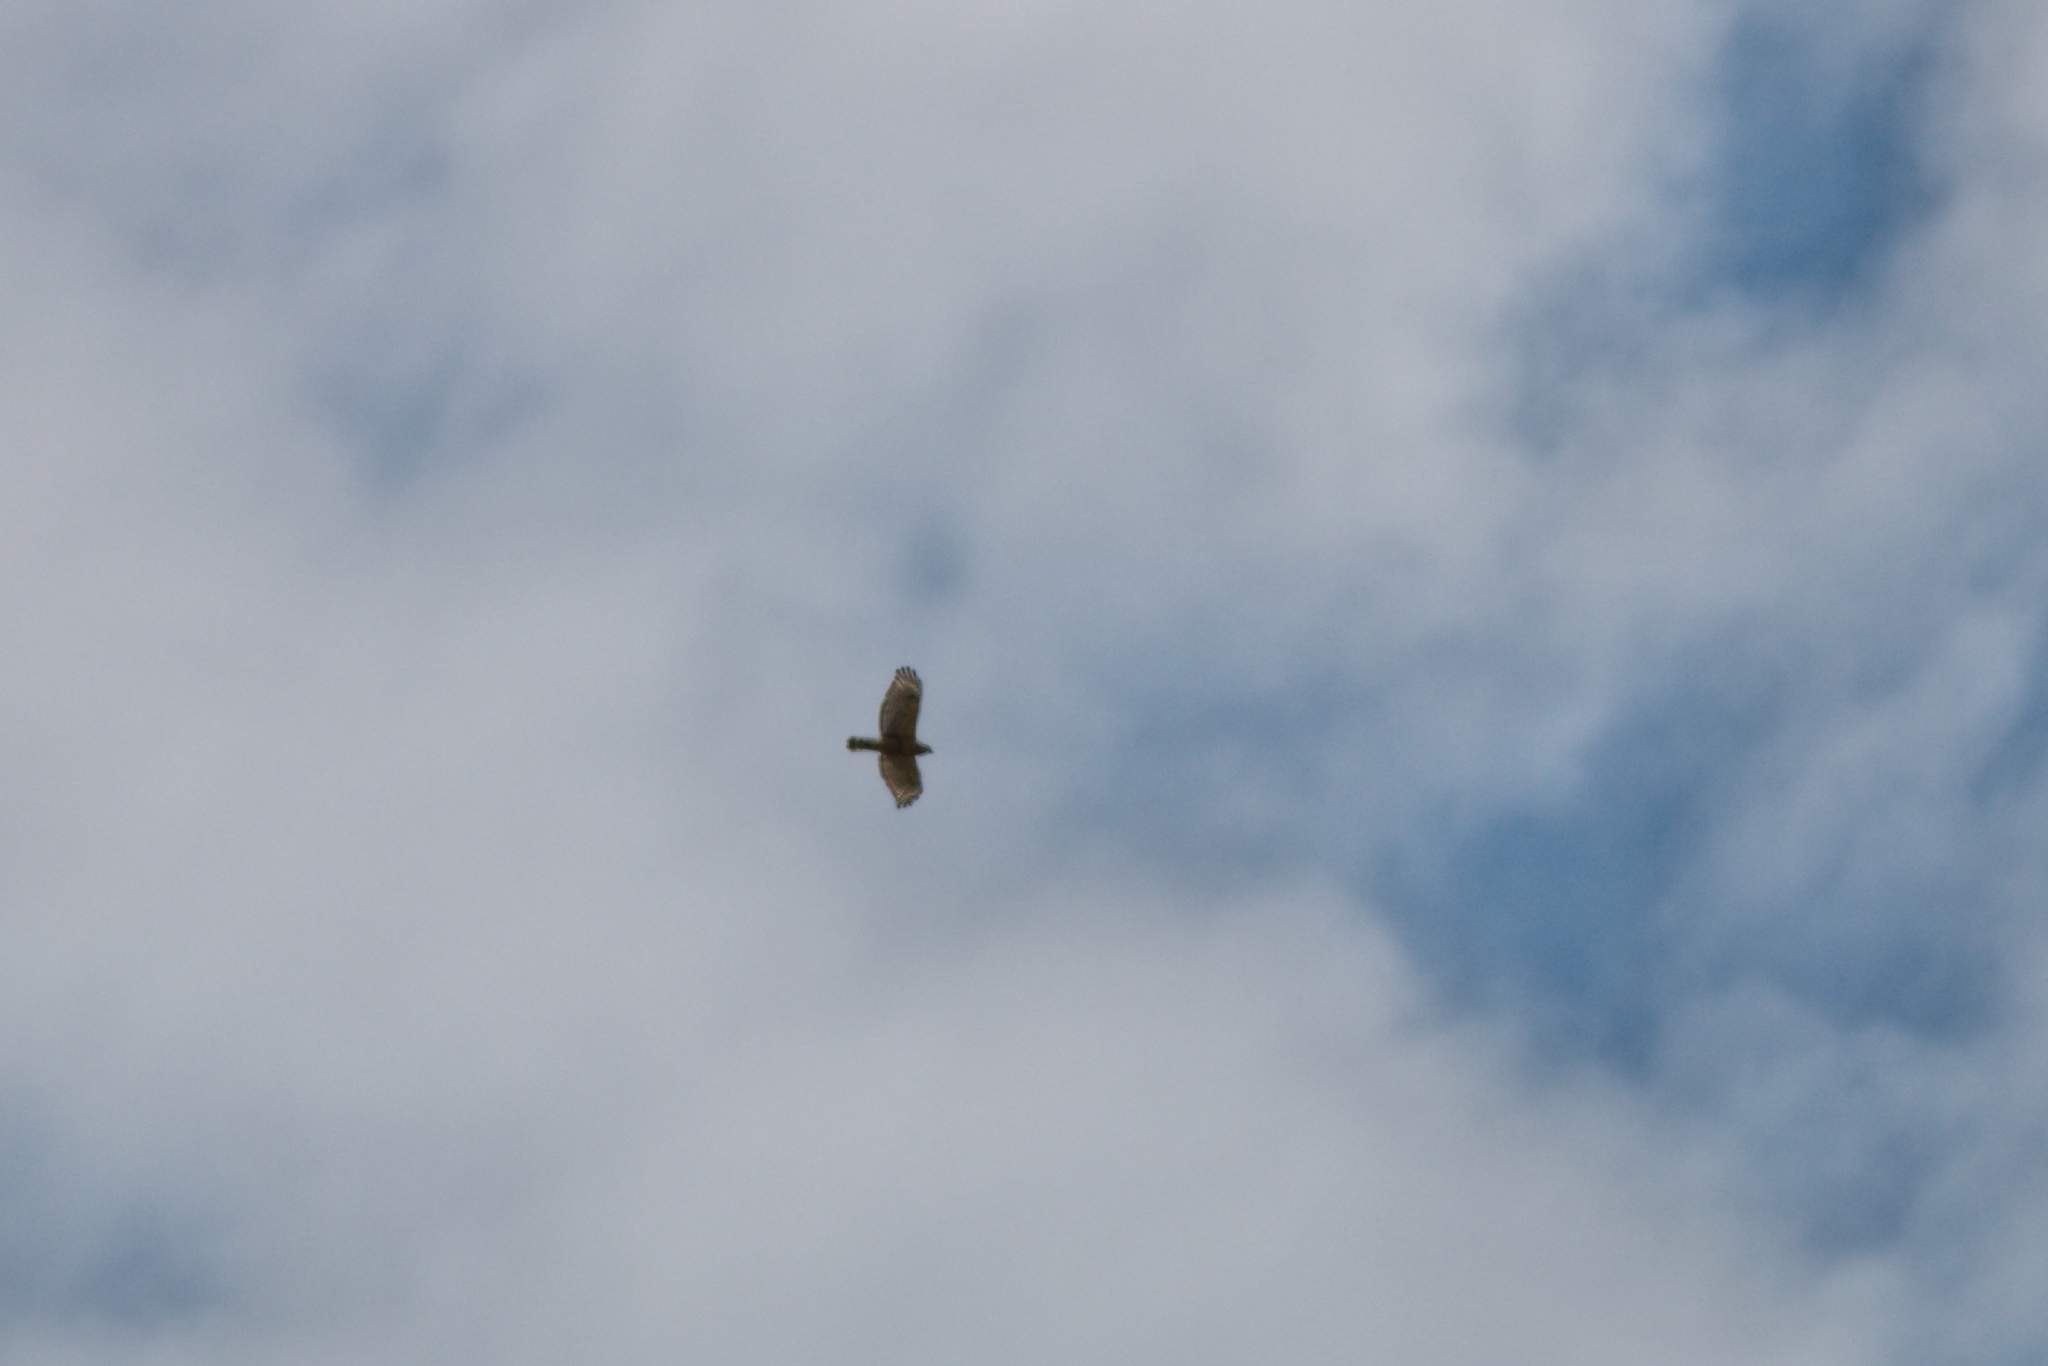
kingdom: Animalia
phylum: Chordata
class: Aves
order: Accipitriformes
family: Accipitridae
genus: Buteo
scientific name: Buteo lineatus
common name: Red-shouldered hawk
